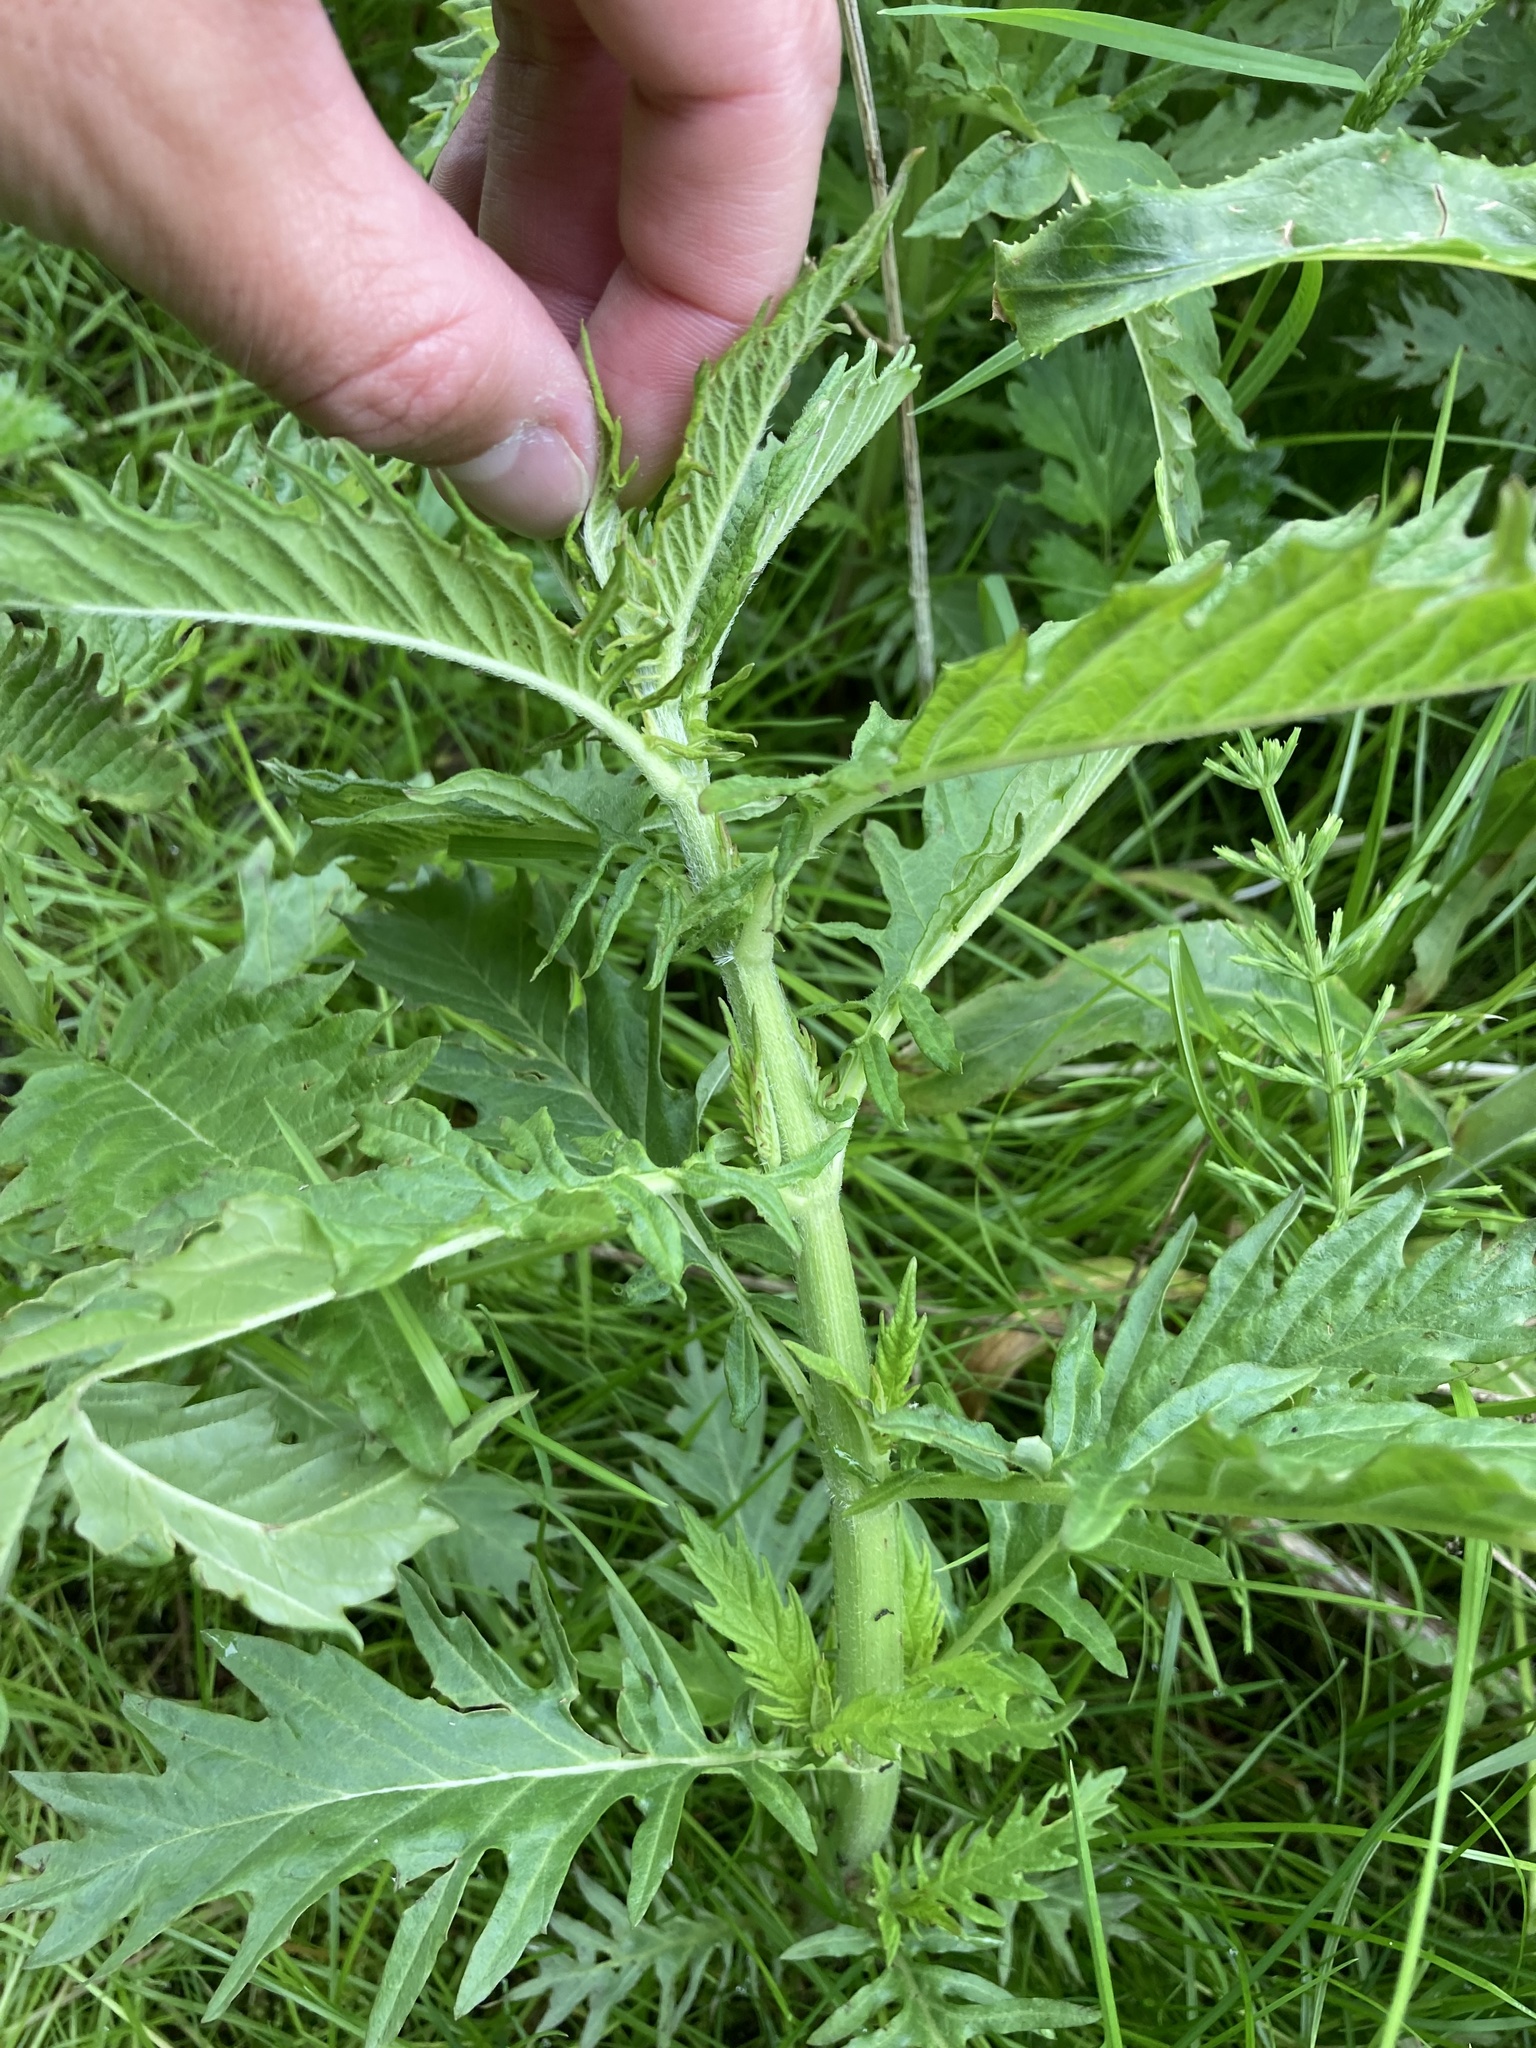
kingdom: Plantae
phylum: Tracheophyta
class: Magnoliopsida
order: Lamiales
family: Lamiaceae
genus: Lycopus
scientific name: Lycopus europaeus
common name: European bugleweed
